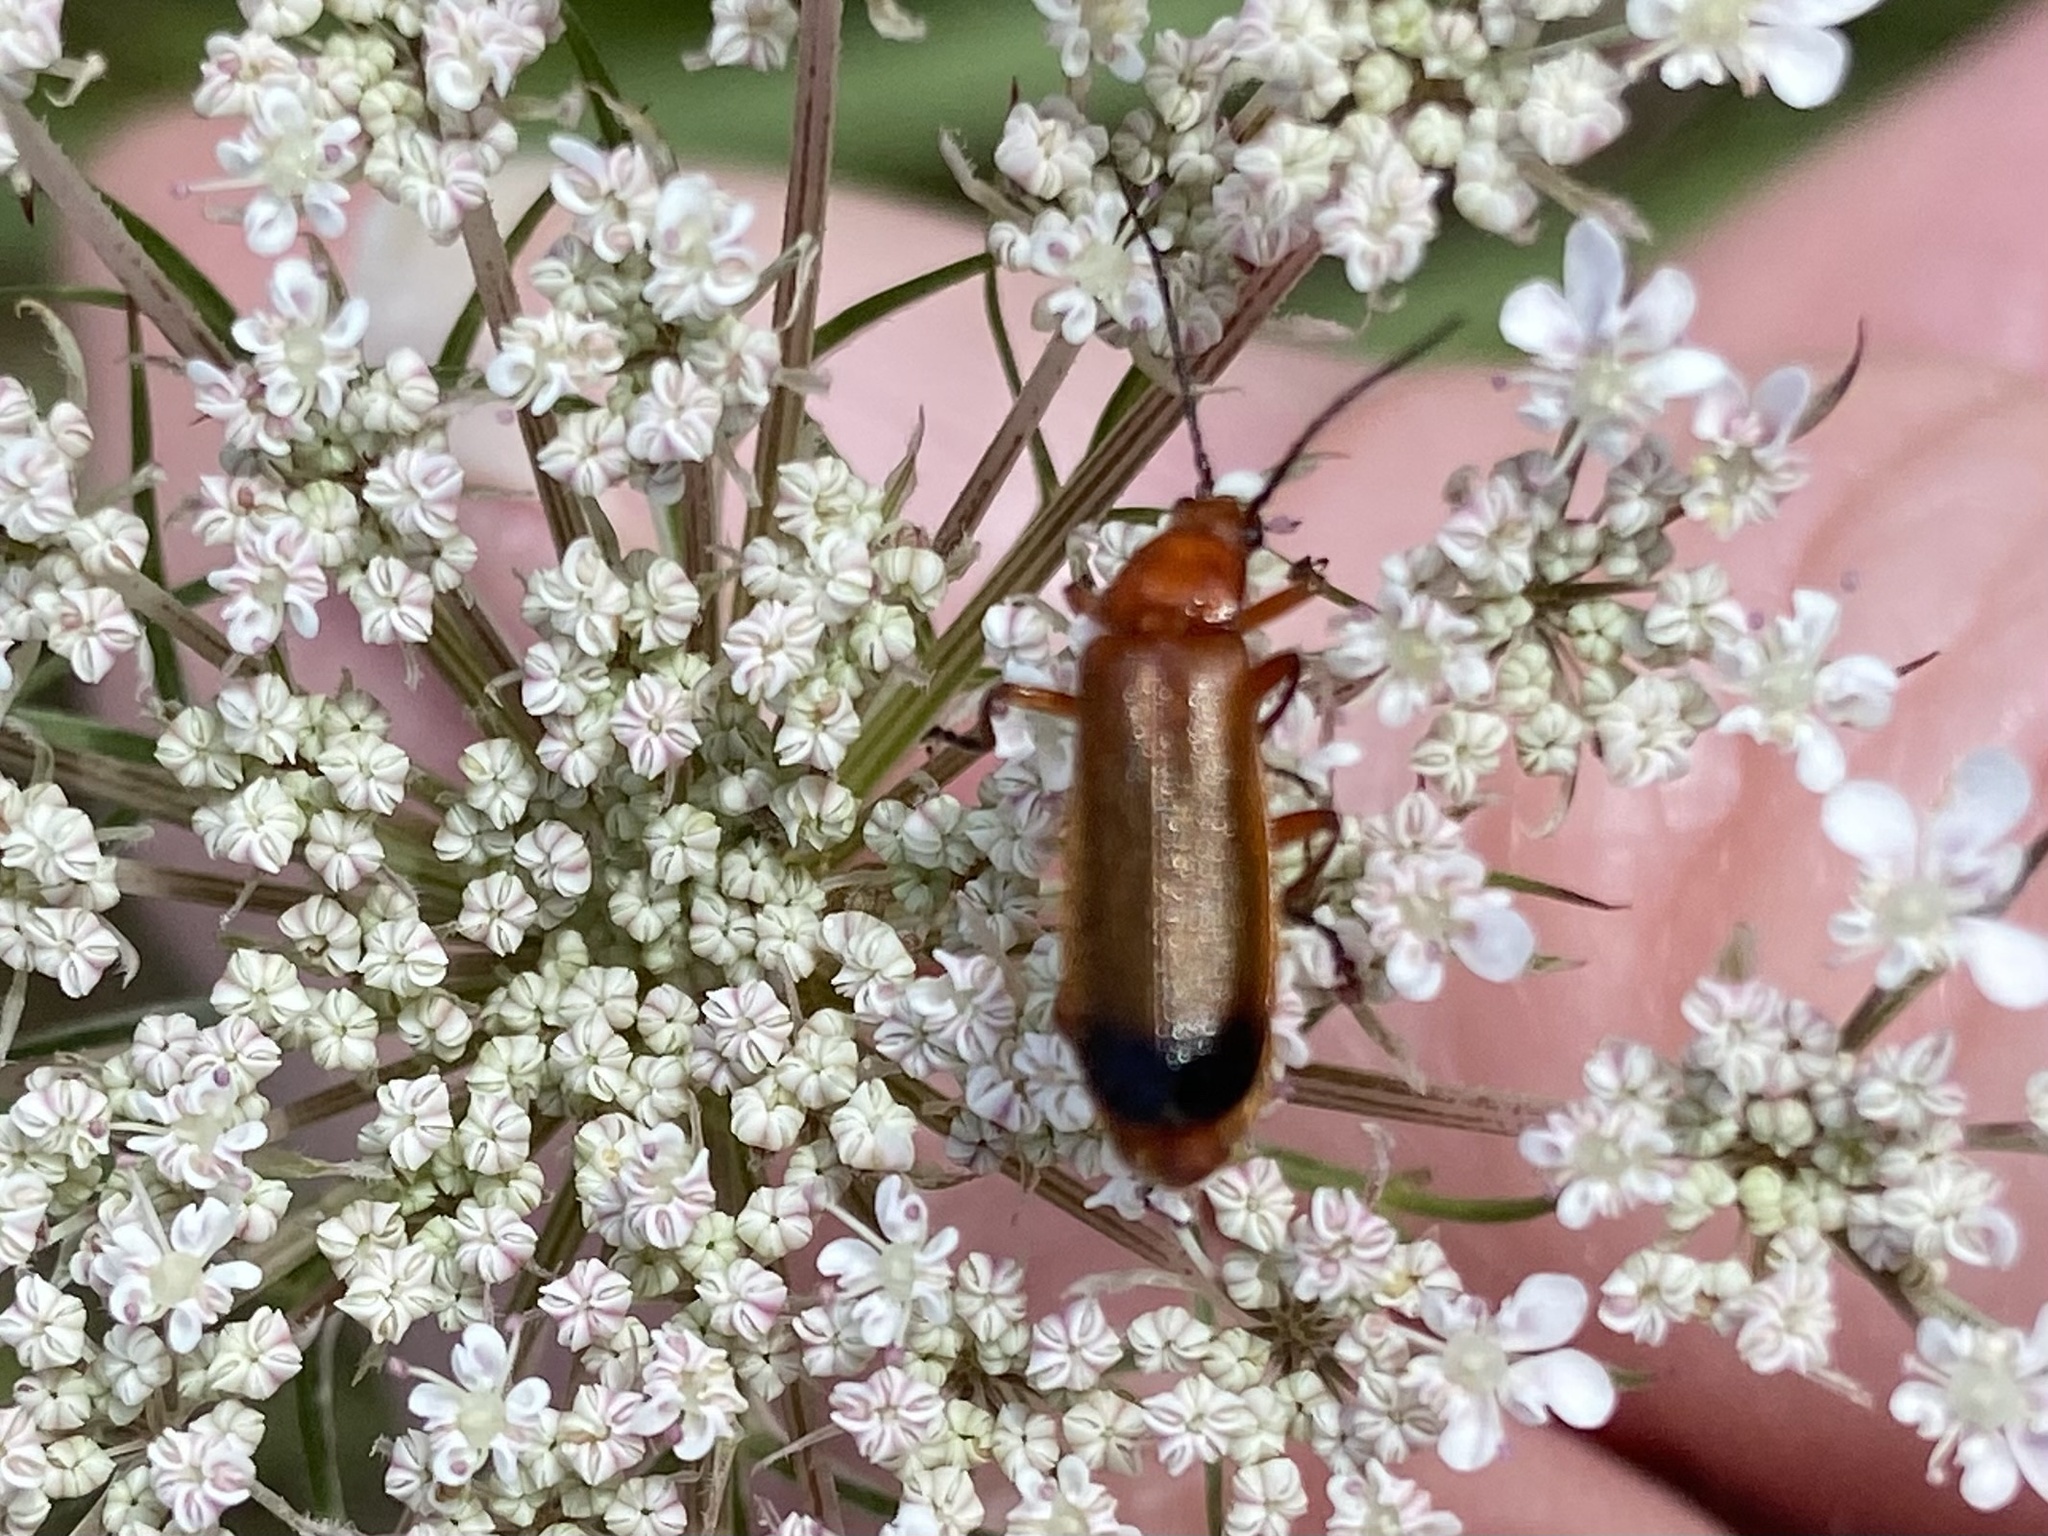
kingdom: Animalia
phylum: Arthropoda
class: Insecta
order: Coleoptera
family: Cantharidae
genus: Rhagonycha
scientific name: Rhagonycha fulva
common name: Common red soldier beetle
